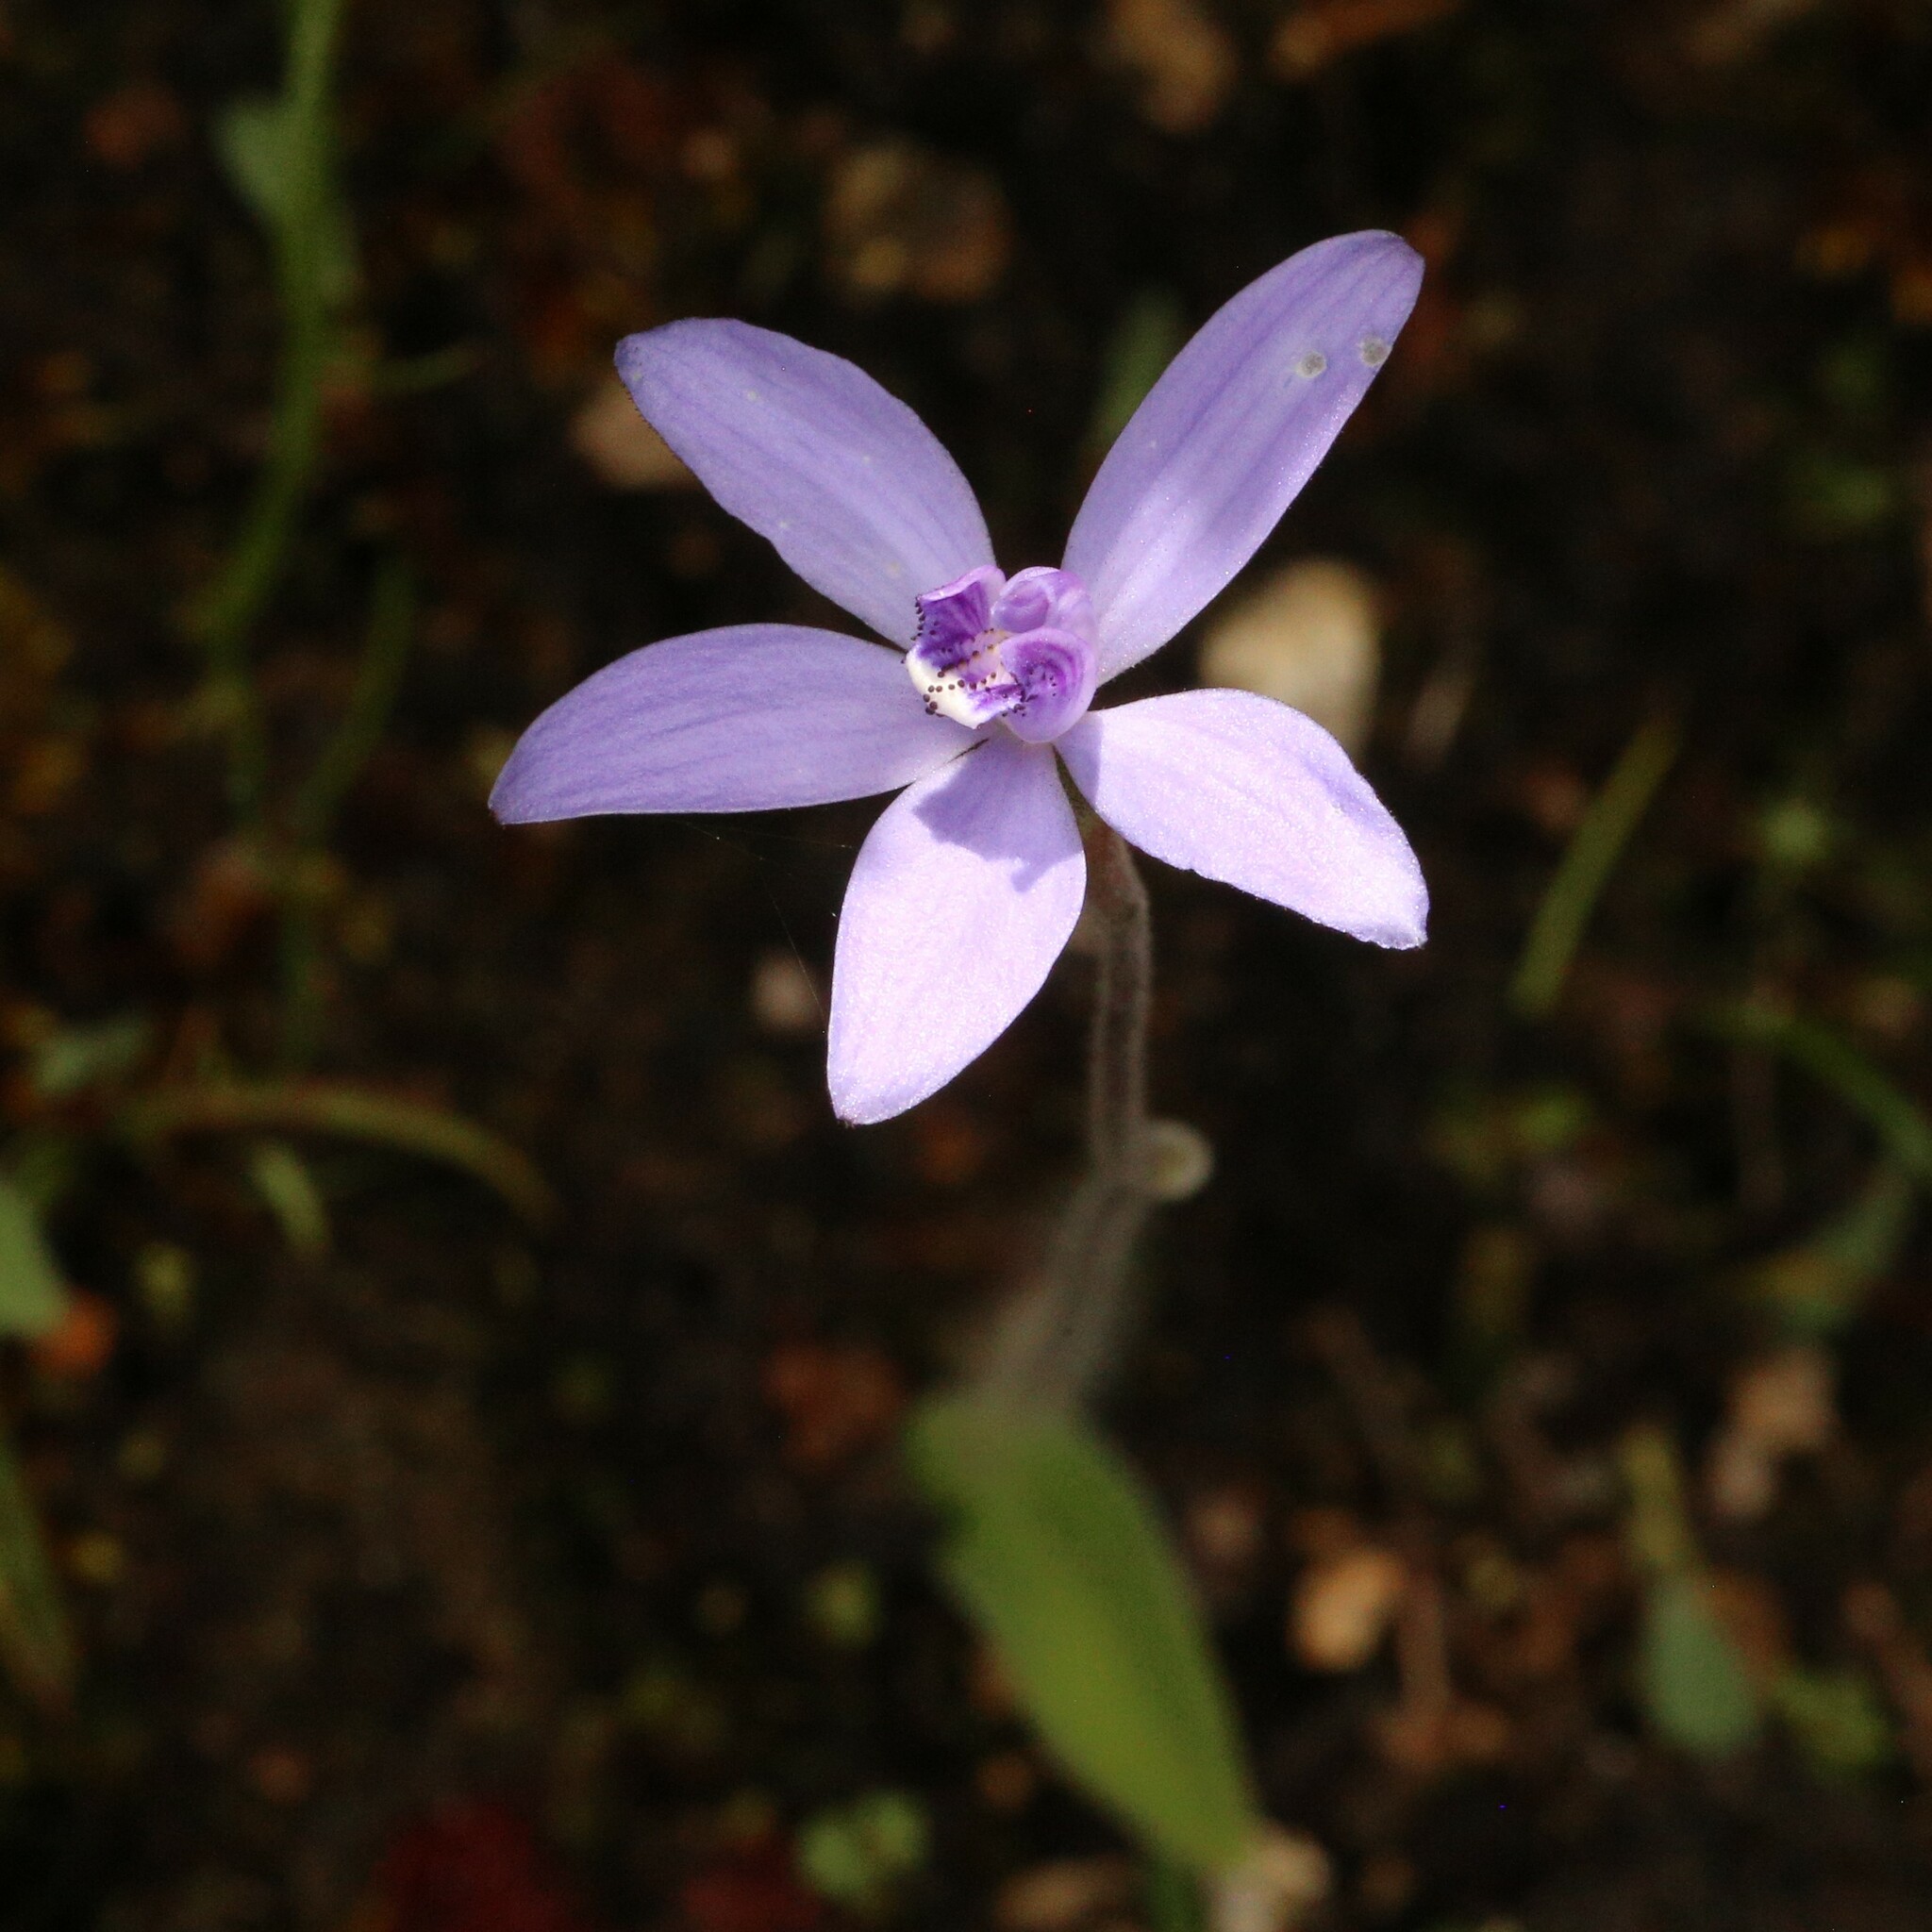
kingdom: Plantae
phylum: Tracheophyta
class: Liliopsida
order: Asparagales
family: Orchidaceae
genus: Caladenia
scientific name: Caladenia sericea
